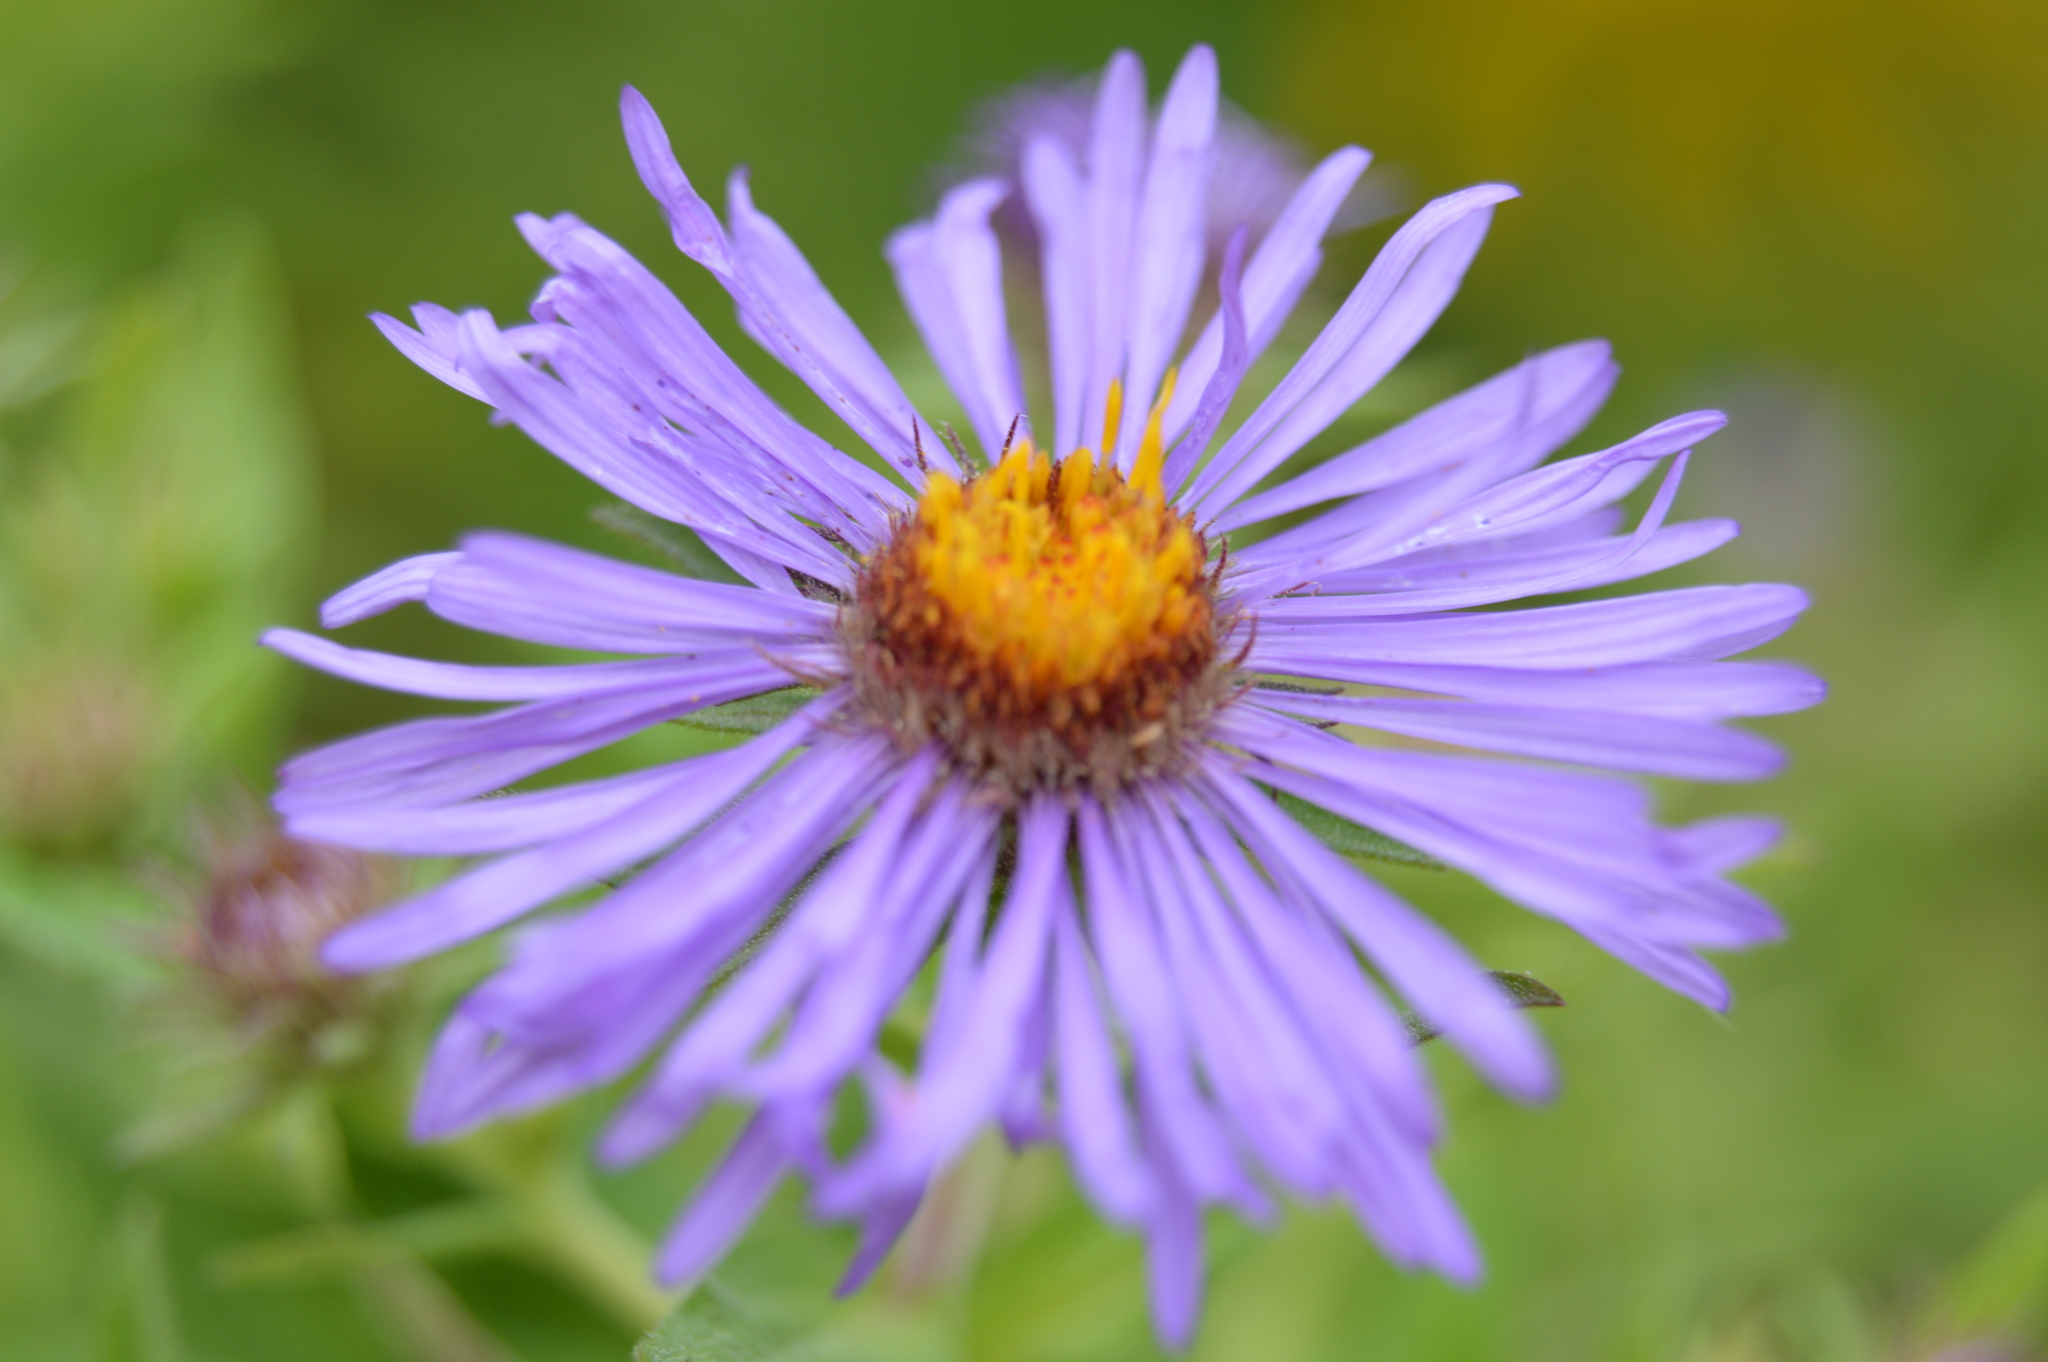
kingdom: Plantae
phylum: Tracheophyta
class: Magnoliopsida
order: Asterales
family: Asteraceae
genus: Symphyotrichum
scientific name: Symphyotrichum novae-angliae
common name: Michaelmas daisy
